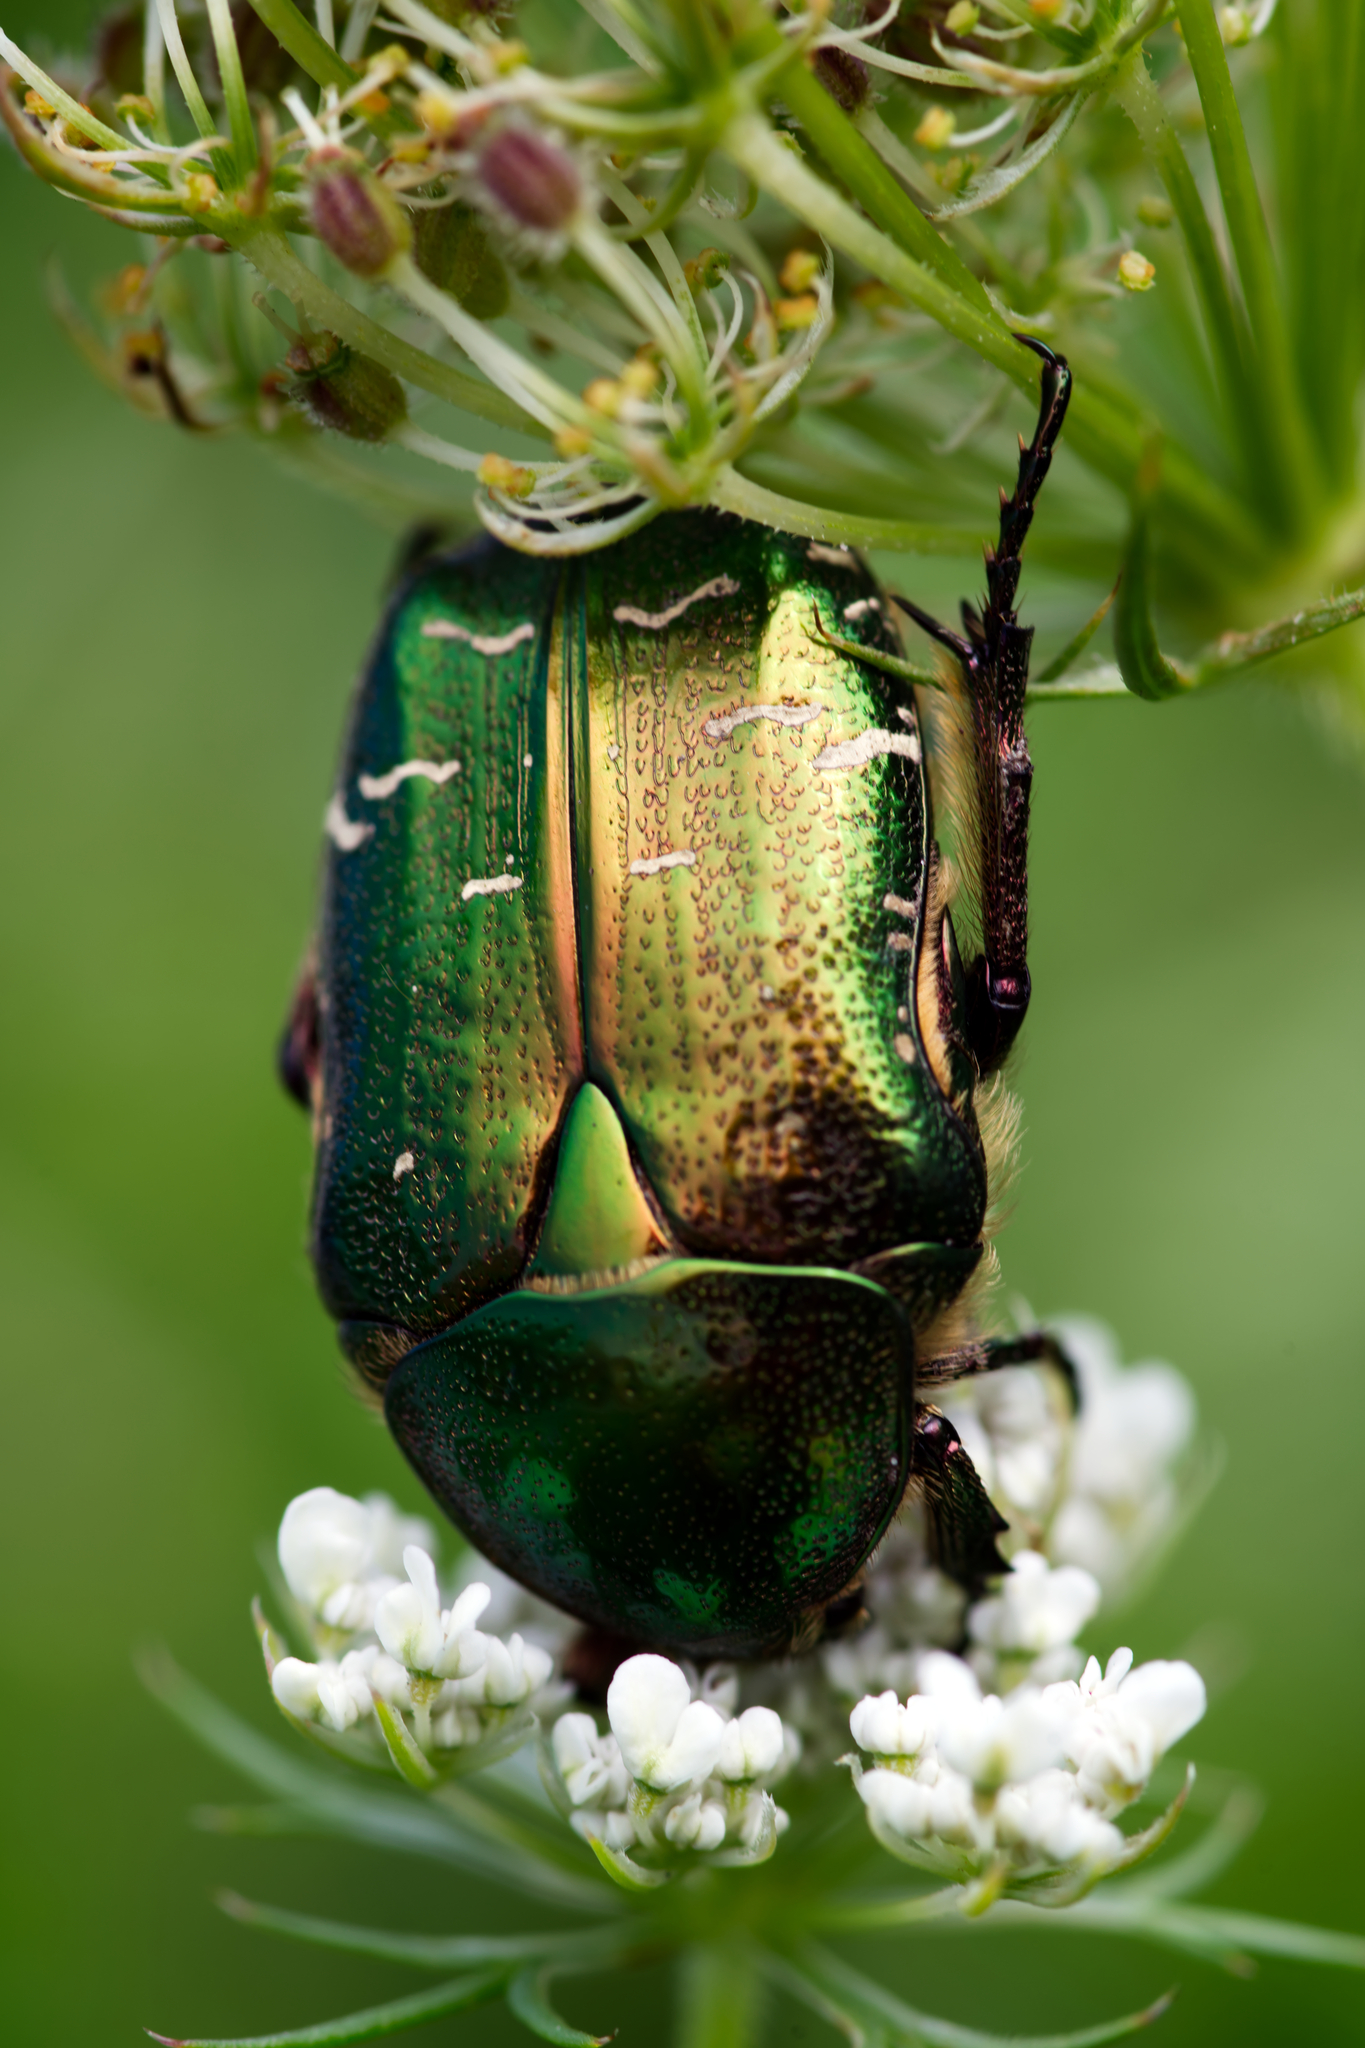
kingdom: Animalia
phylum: Arthropoda
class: Insecta
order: Coleoptera
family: Scarabaeidae
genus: Cetonia
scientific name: Cetonia aurata
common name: Rose chafer
